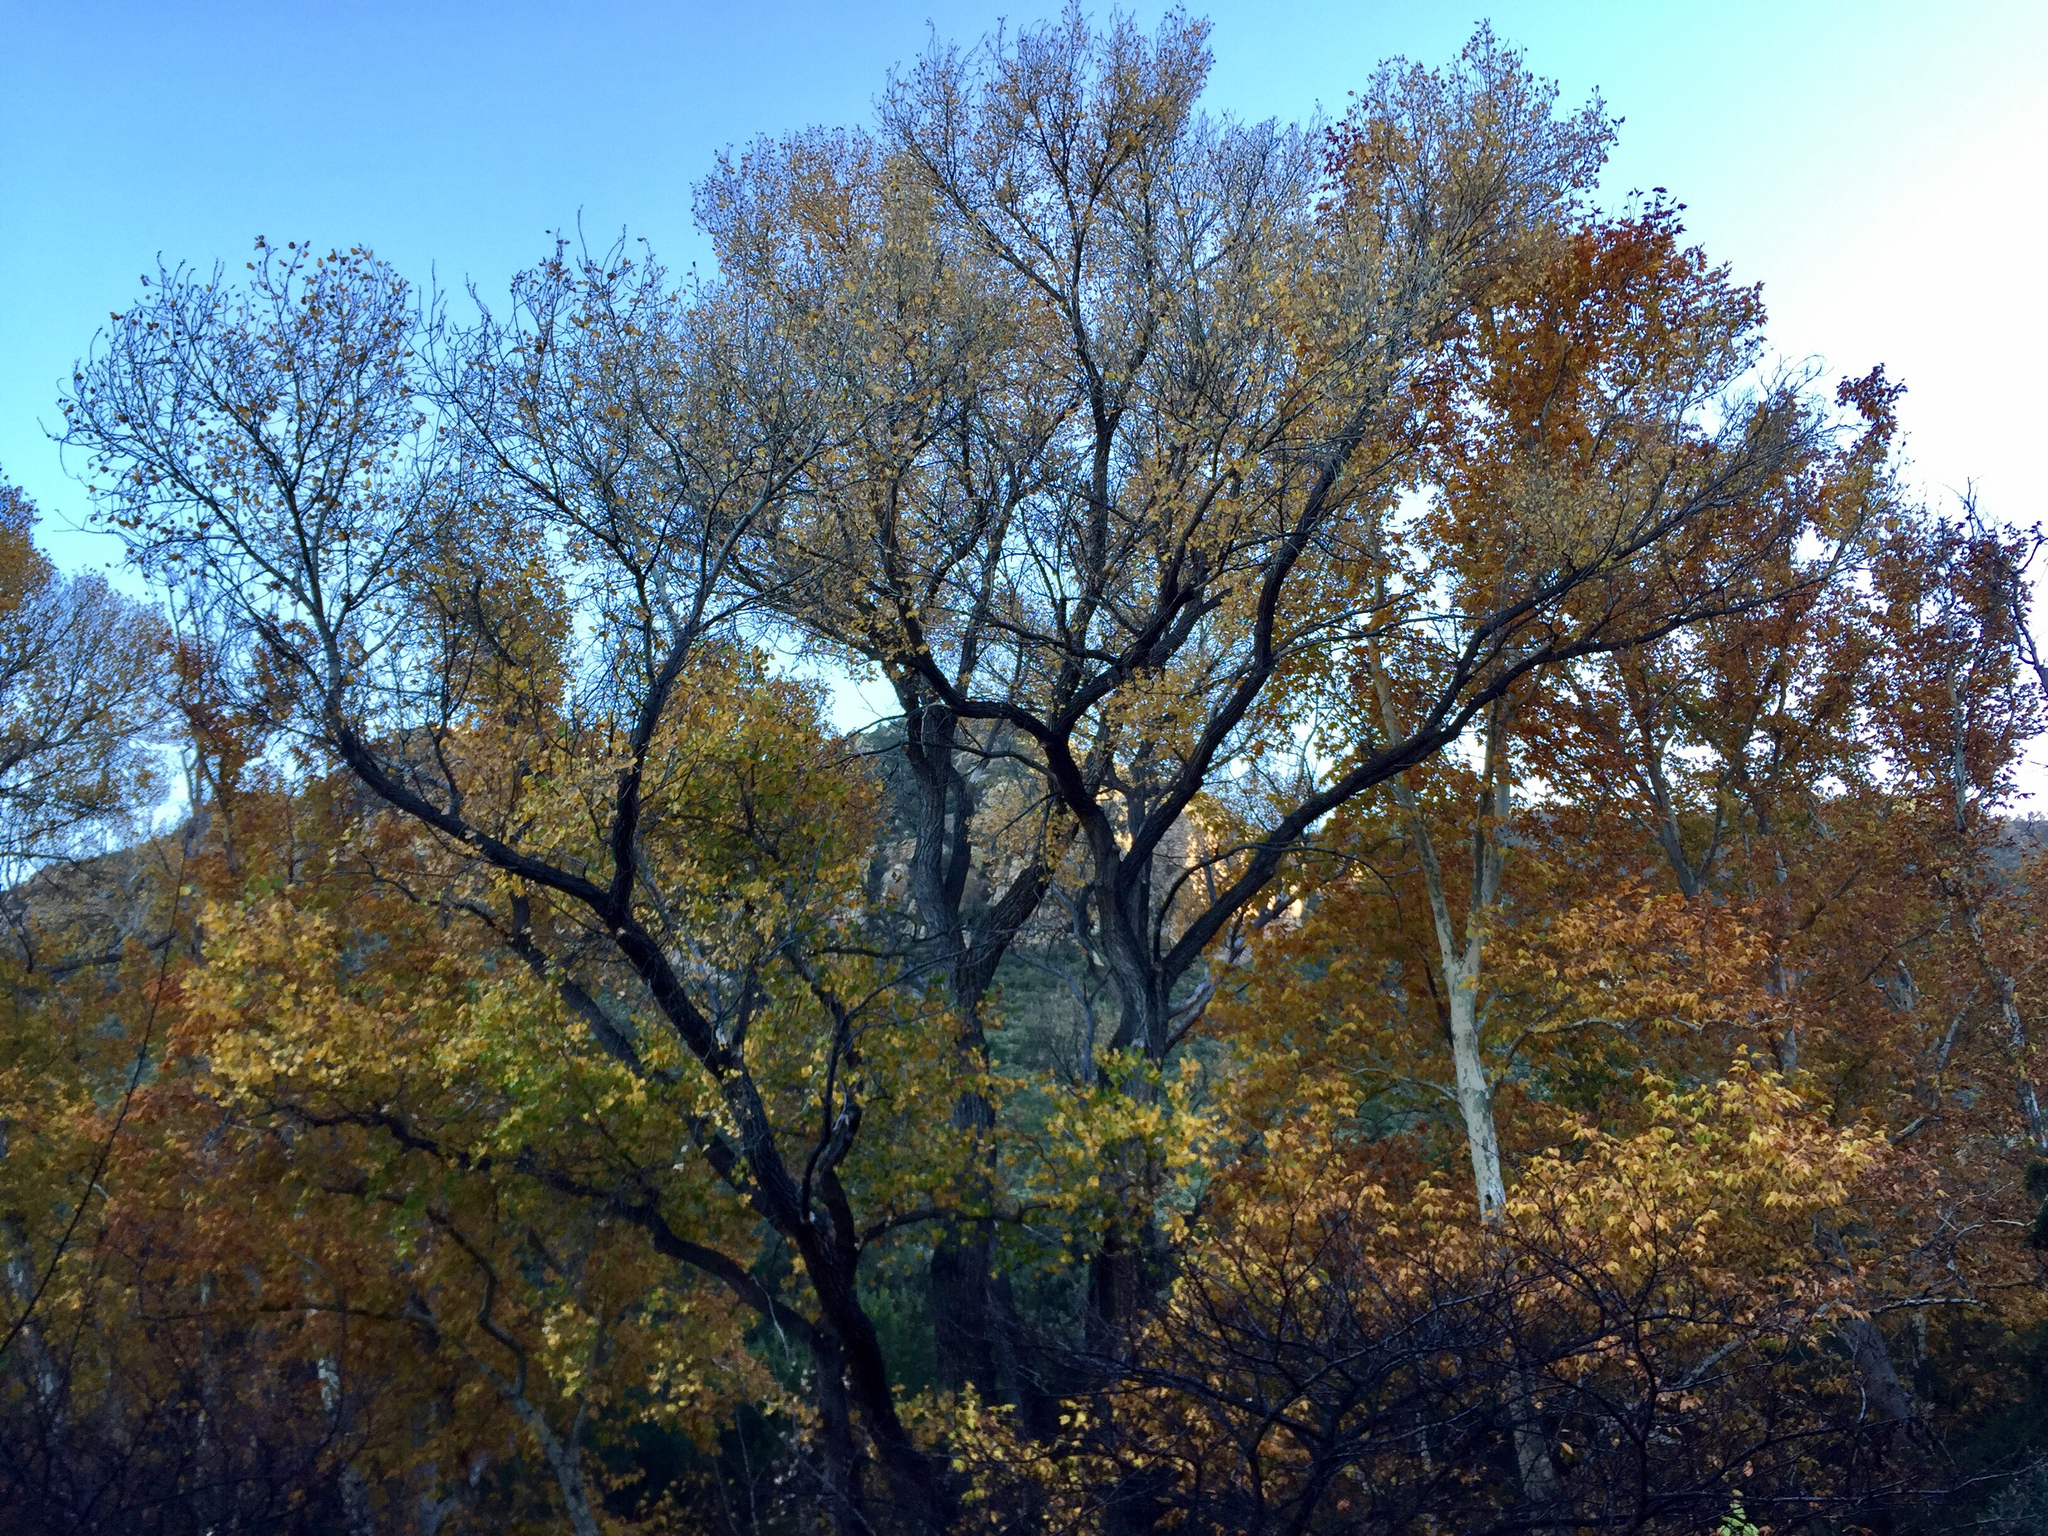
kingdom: Plantae
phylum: Tracheophyta
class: Magnoliopsida
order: Malpighiales
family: Salicaceae
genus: Populus
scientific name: Populus fremontii
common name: Fremont's cottonwood
